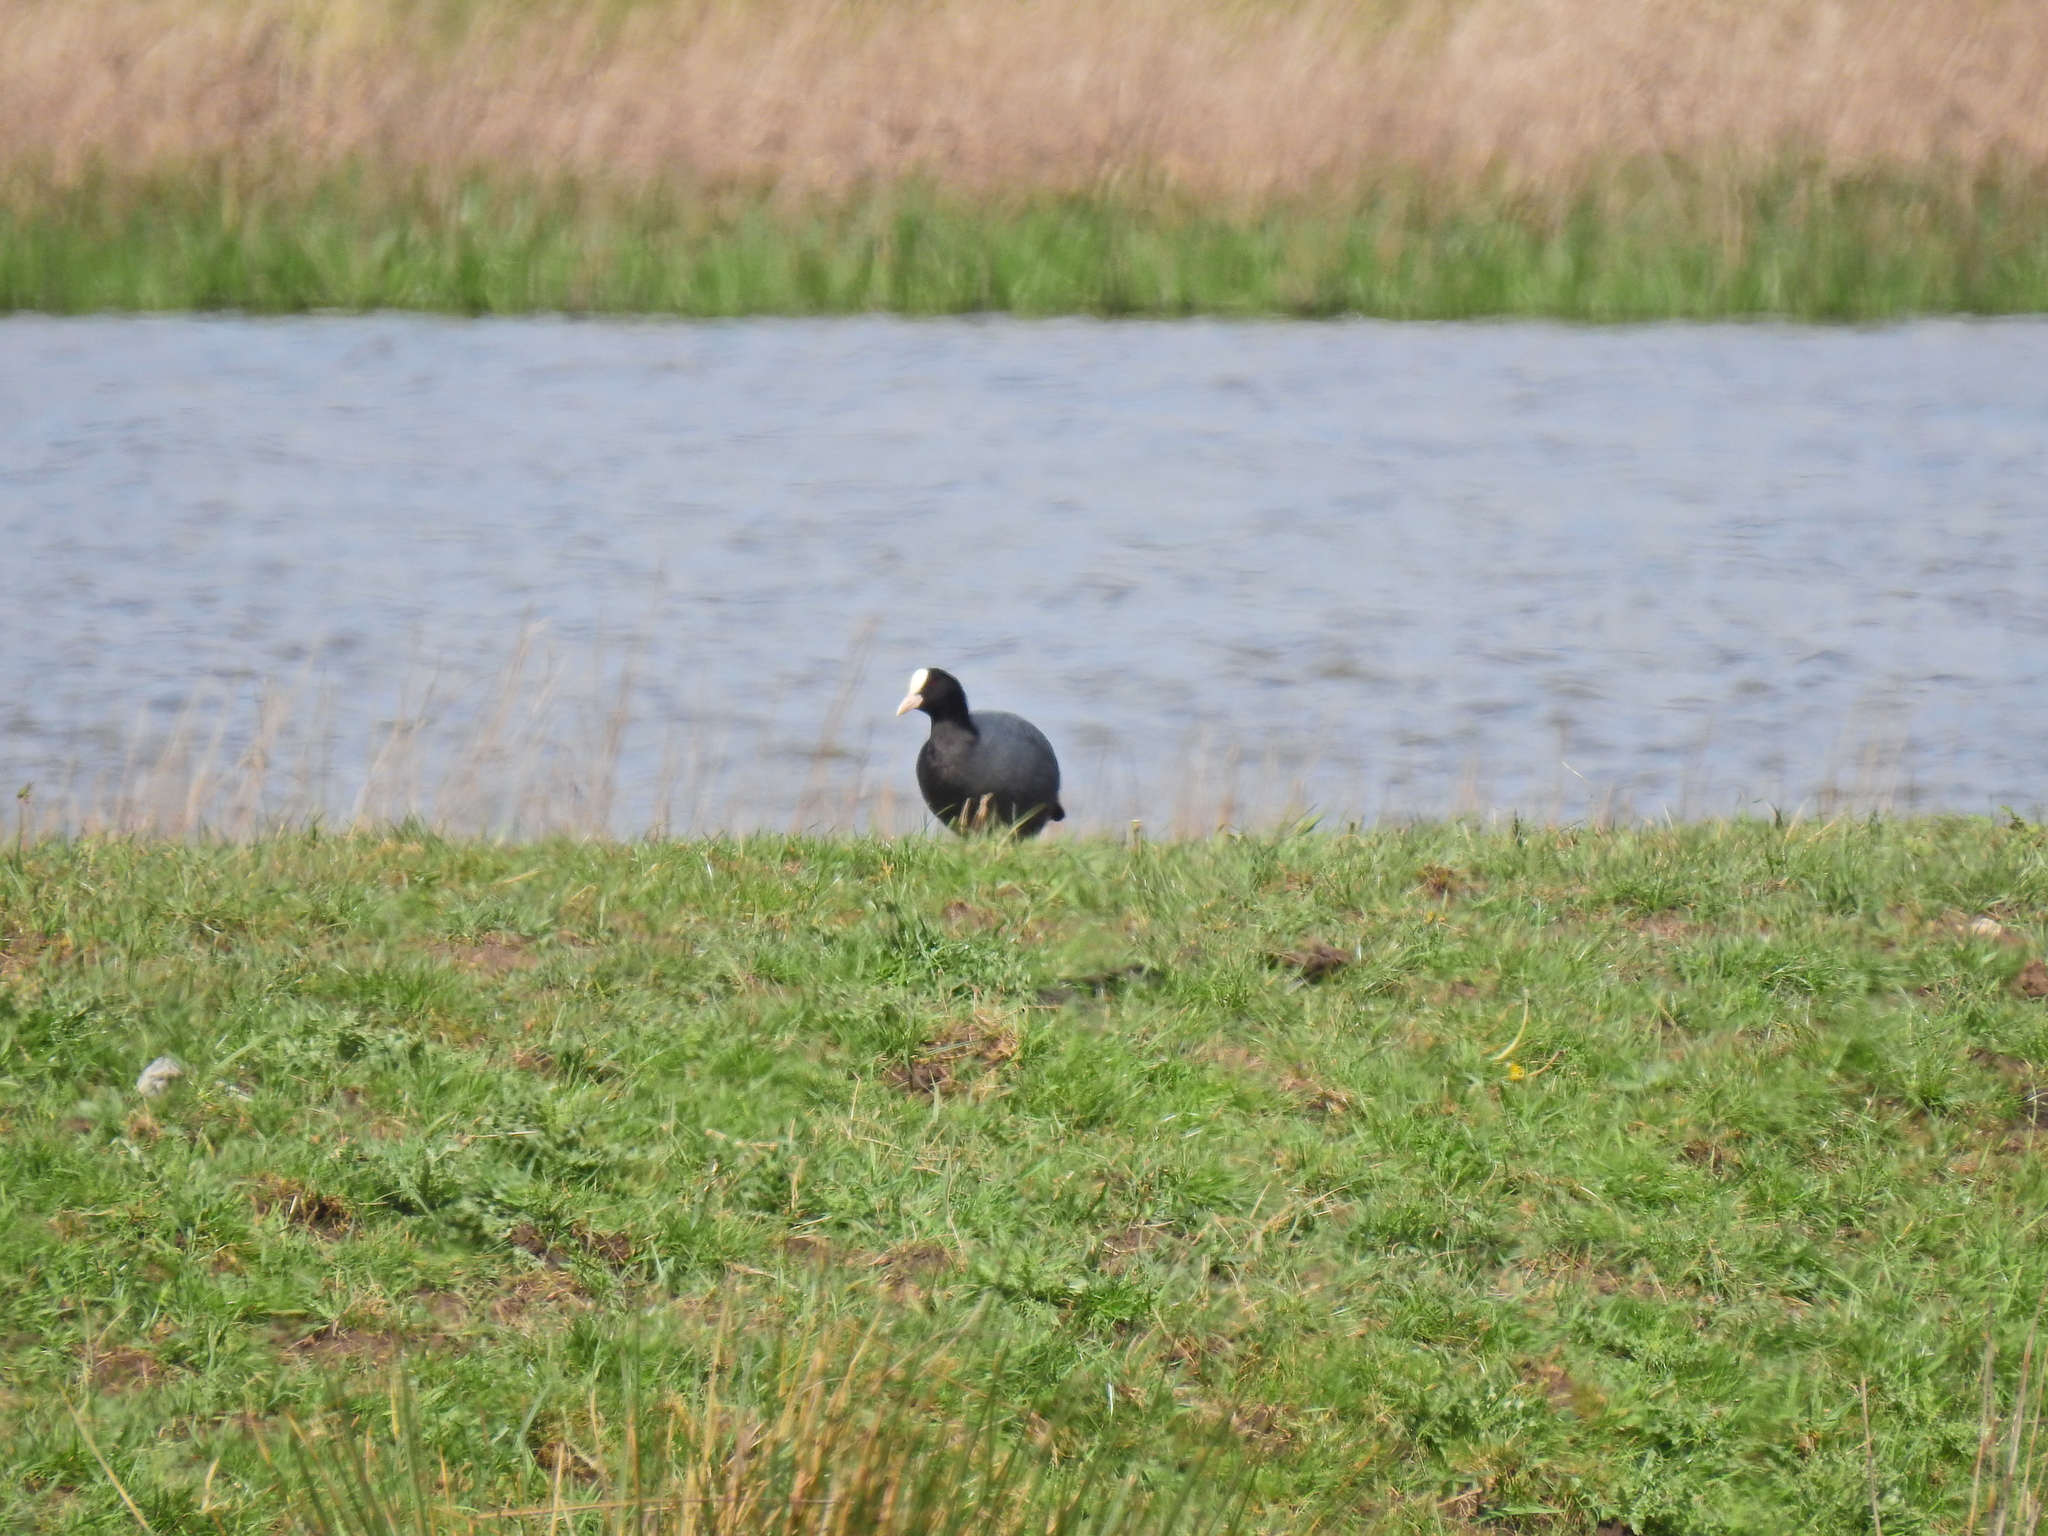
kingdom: Animalia
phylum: Chordata
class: Aves
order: Gruiformes
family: Rallidae
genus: Fulica
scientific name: Fulica atra
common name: Eurasian coot
